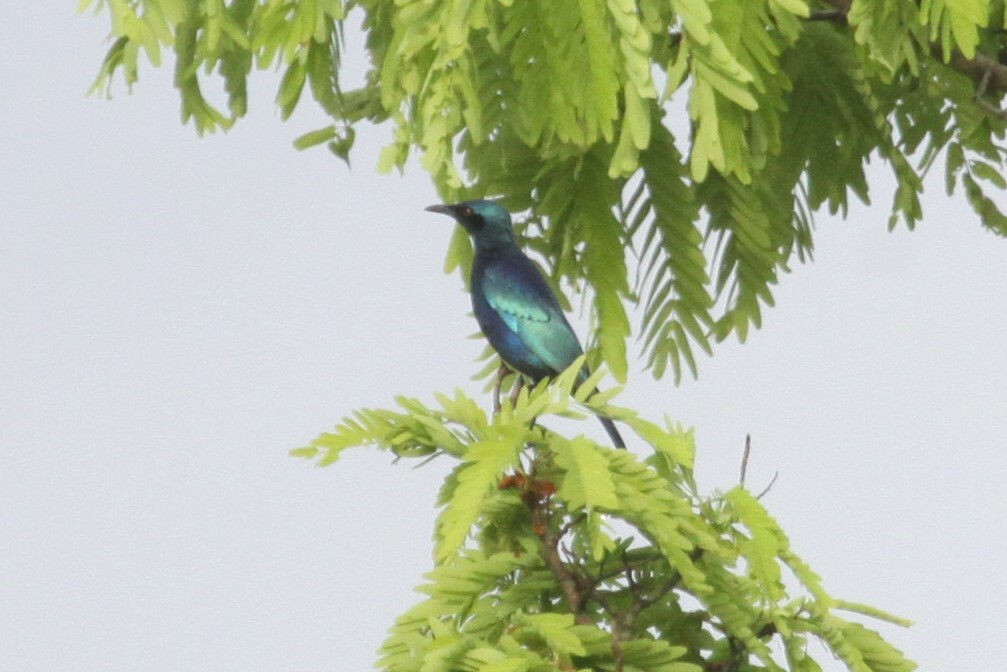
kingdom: Animalia
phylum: Chordata
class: Aves
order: Passeriformes
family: Sturnidae
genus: Lamprotornis
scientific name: Lamprotornis chloropterus
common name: Lesser blue-eared starling
